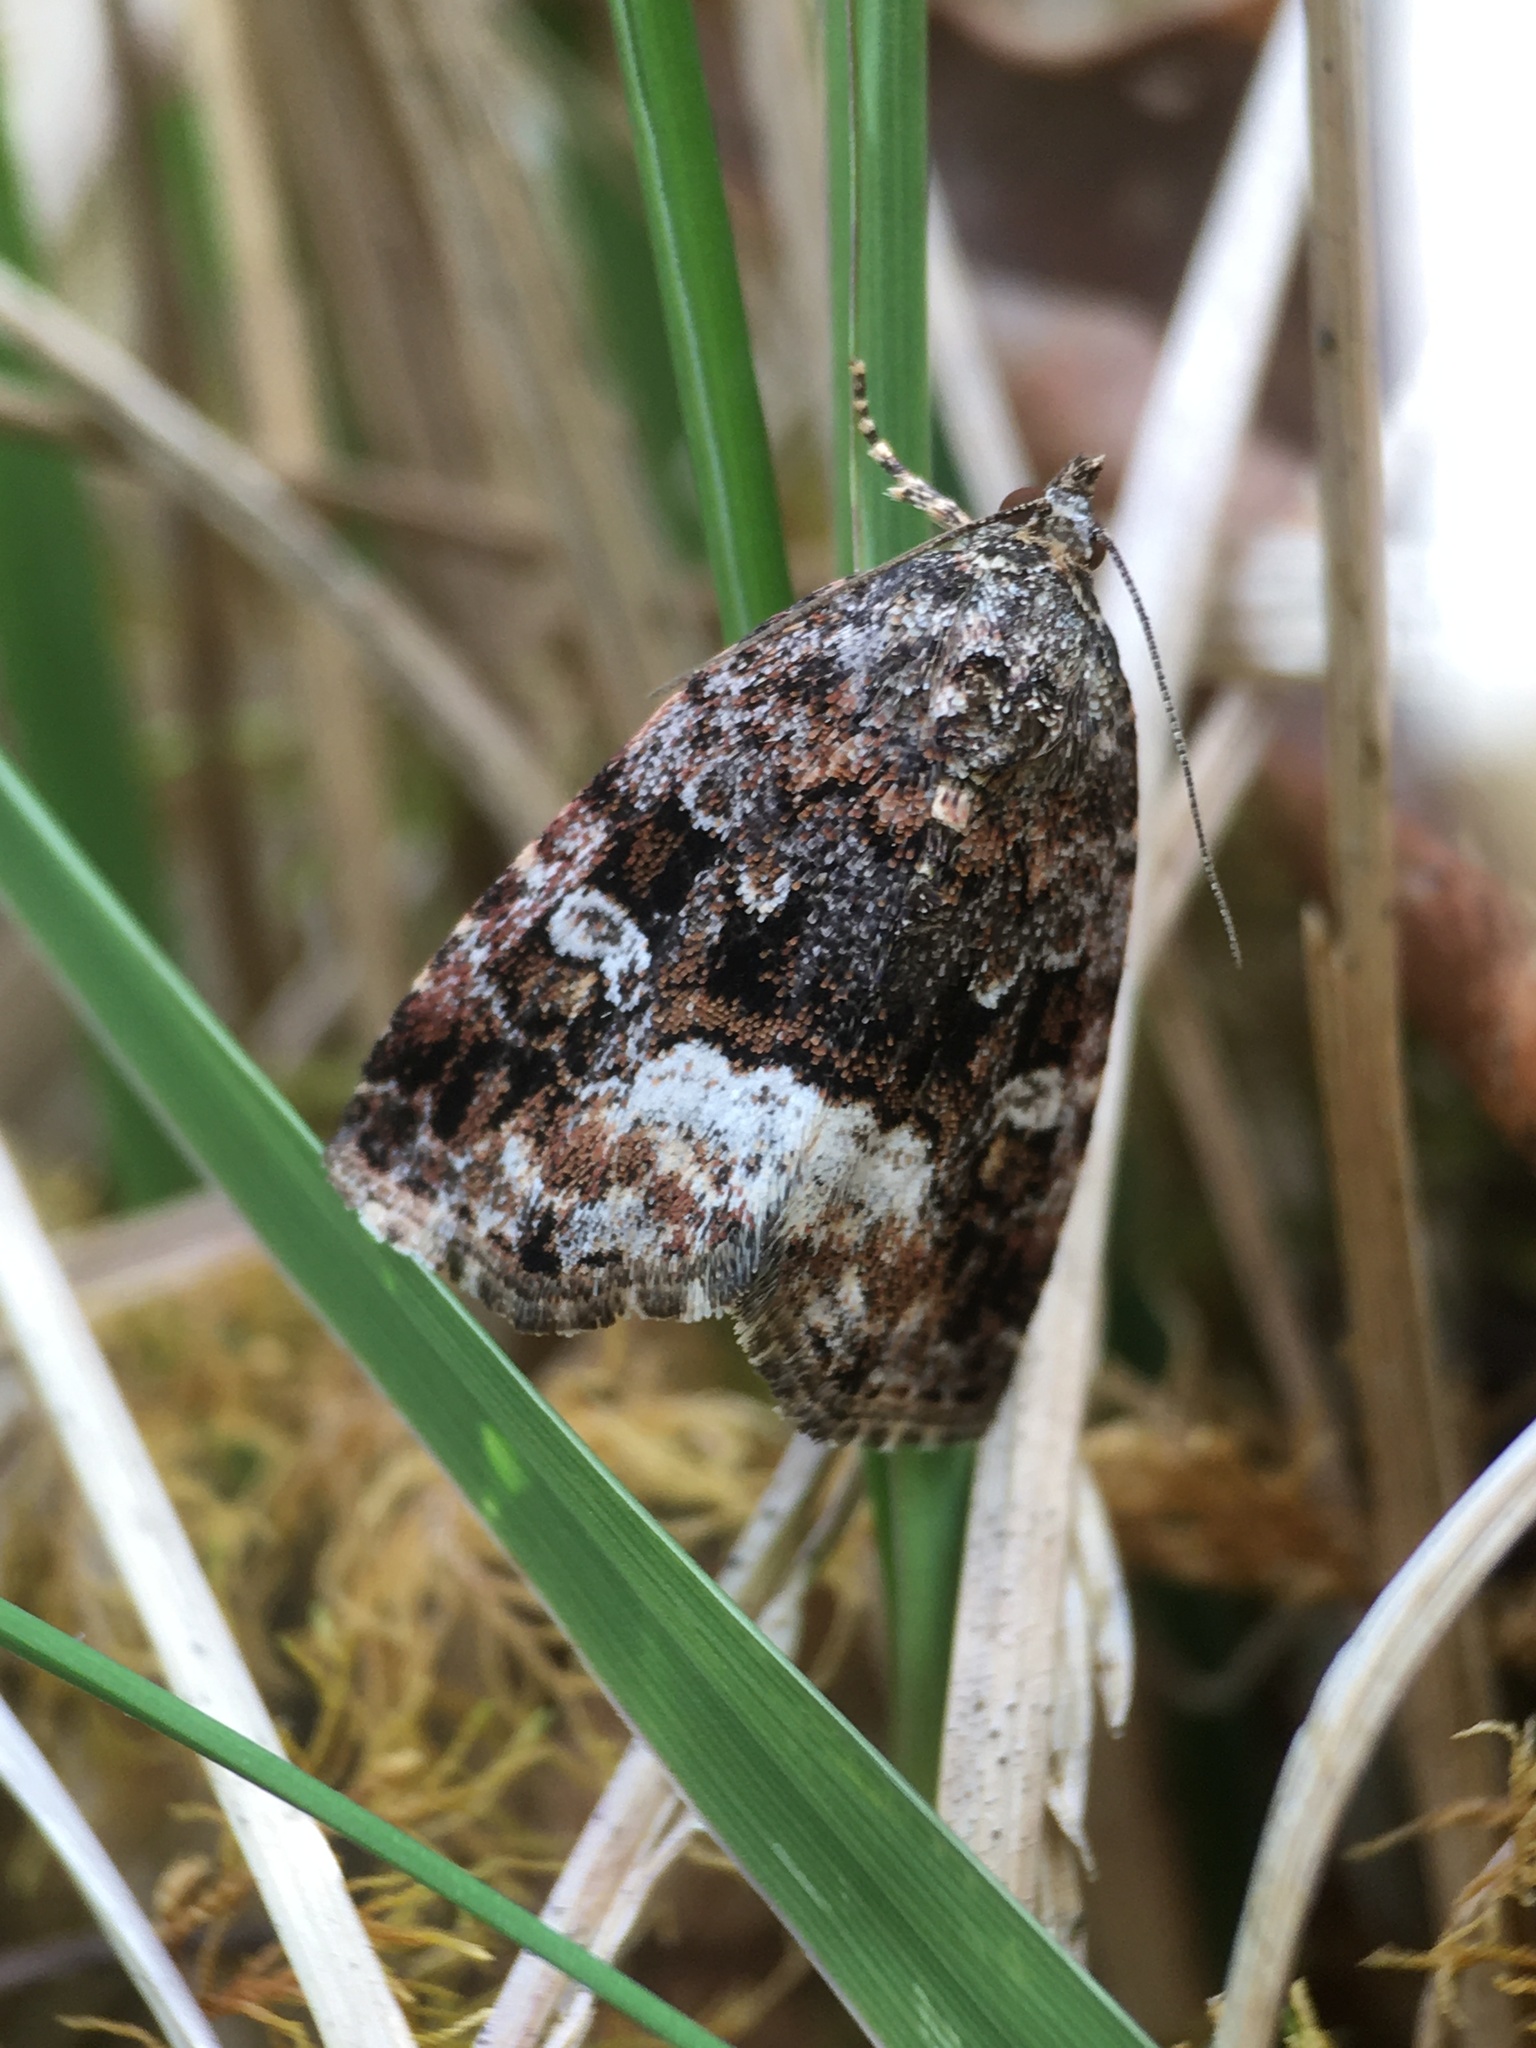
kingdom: Animalia
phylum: Arthropoda
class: Insecta
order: Lepidoptera
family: Noctuidae
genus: Deltote
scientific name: Deltote pygarga
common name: Marbled white spot
